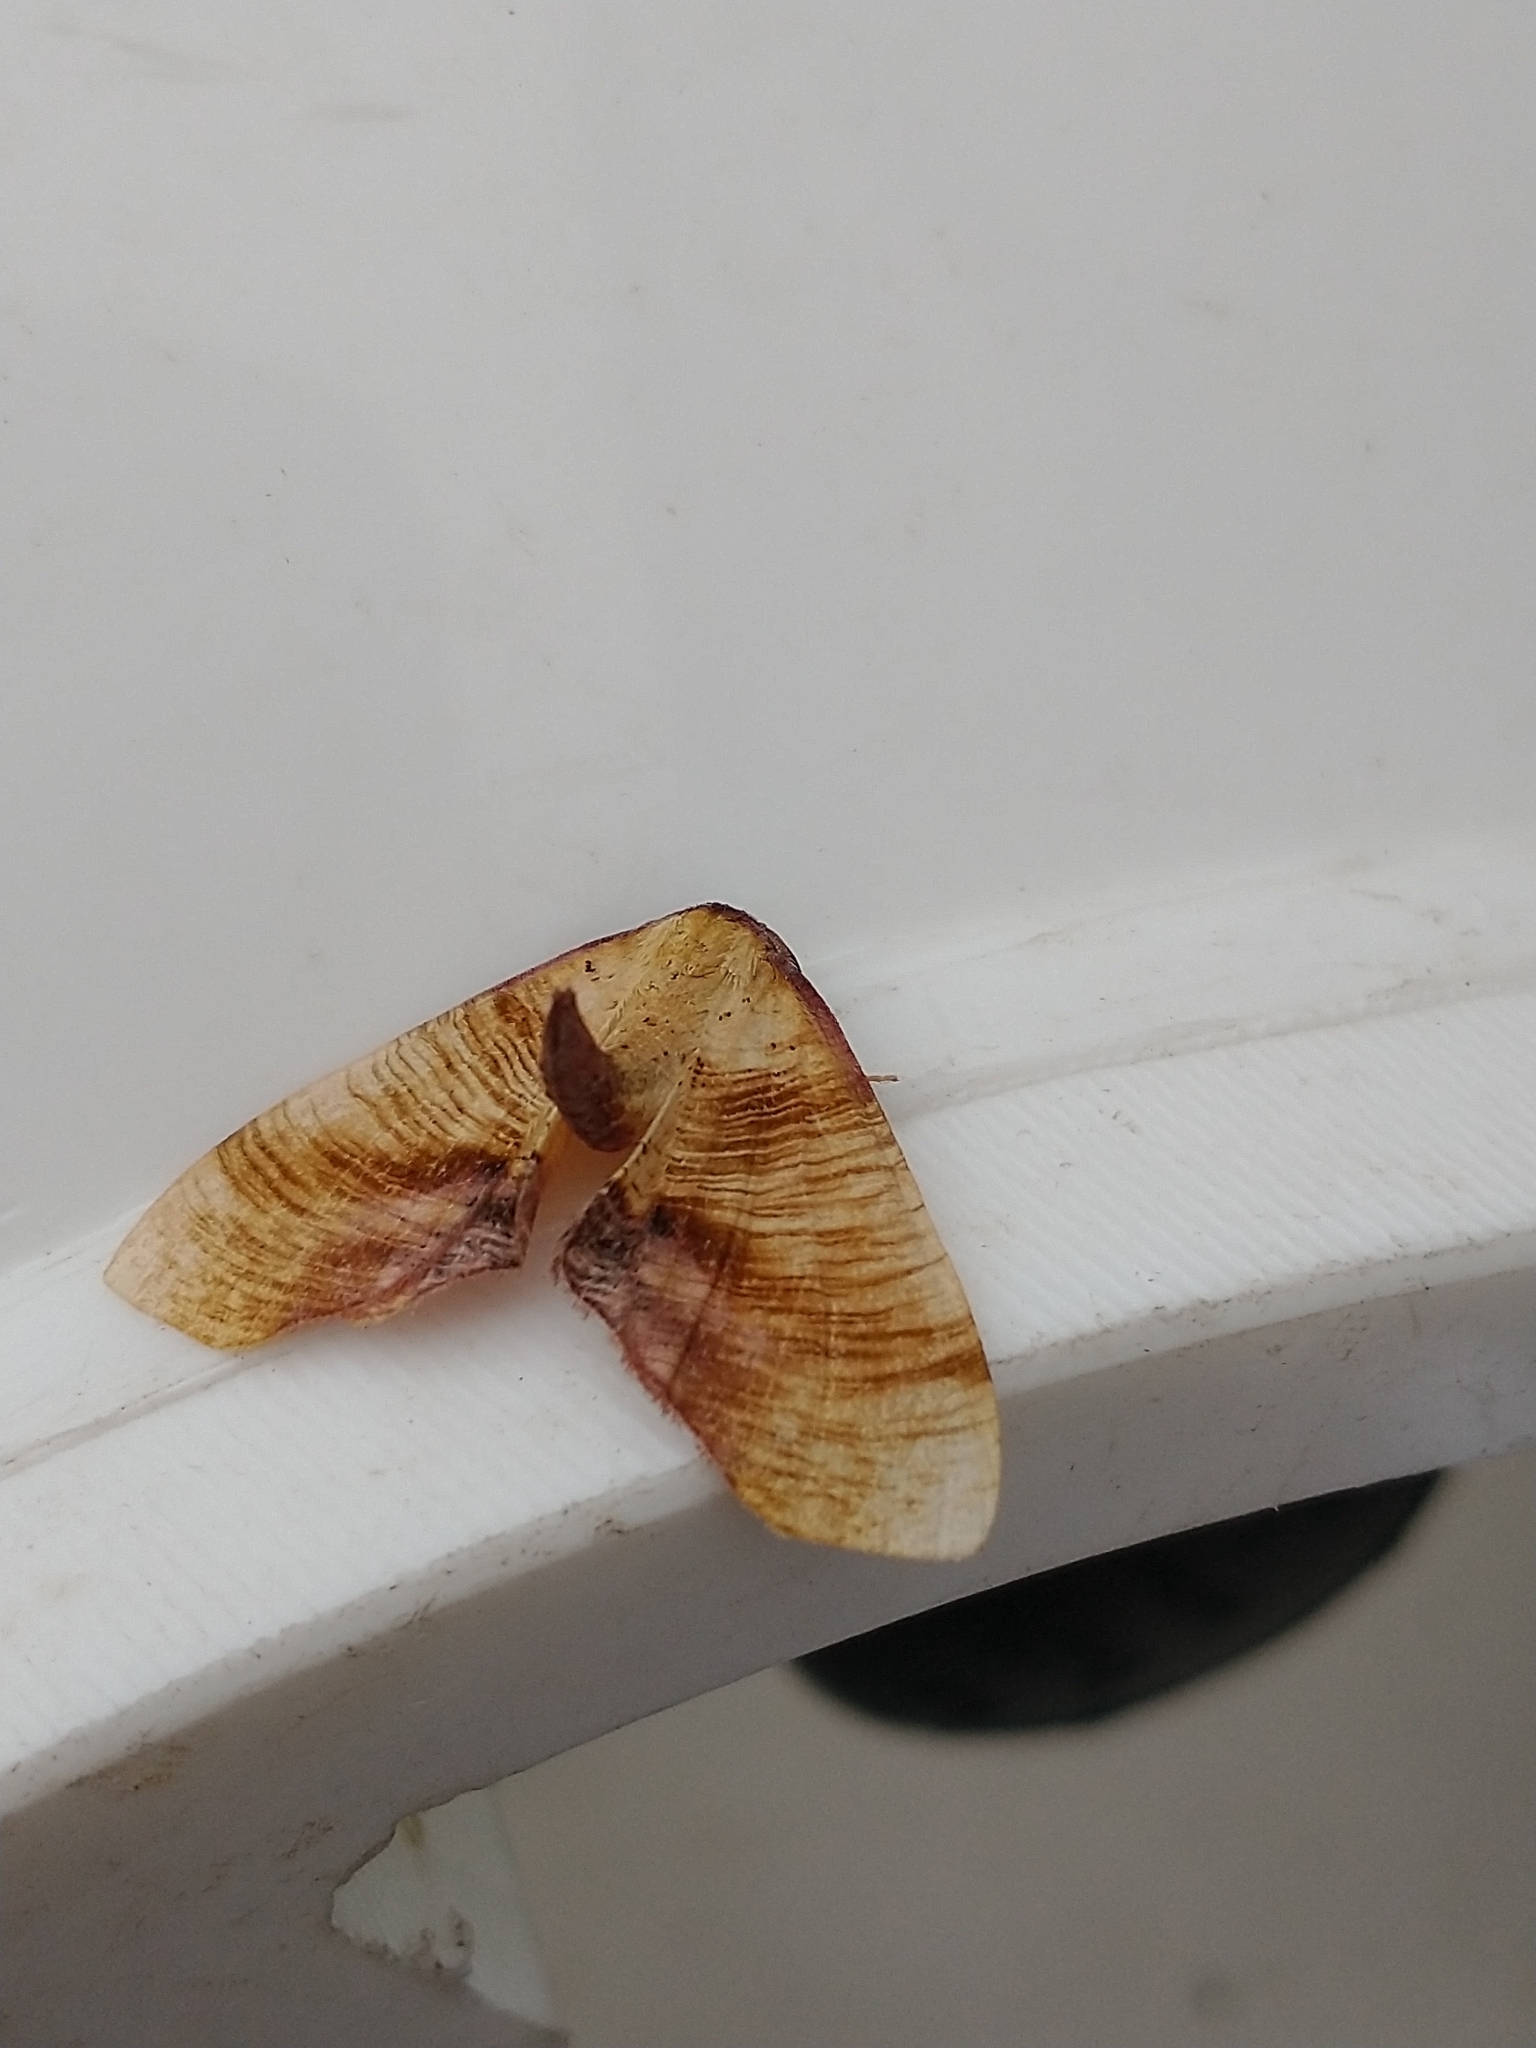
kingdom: Animalia
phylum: Arthropoda
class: Insecta
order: Lepidoptera
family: Geometridae
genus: Plagodis
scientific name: Plagodis dolabraria
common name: Scorched wing
